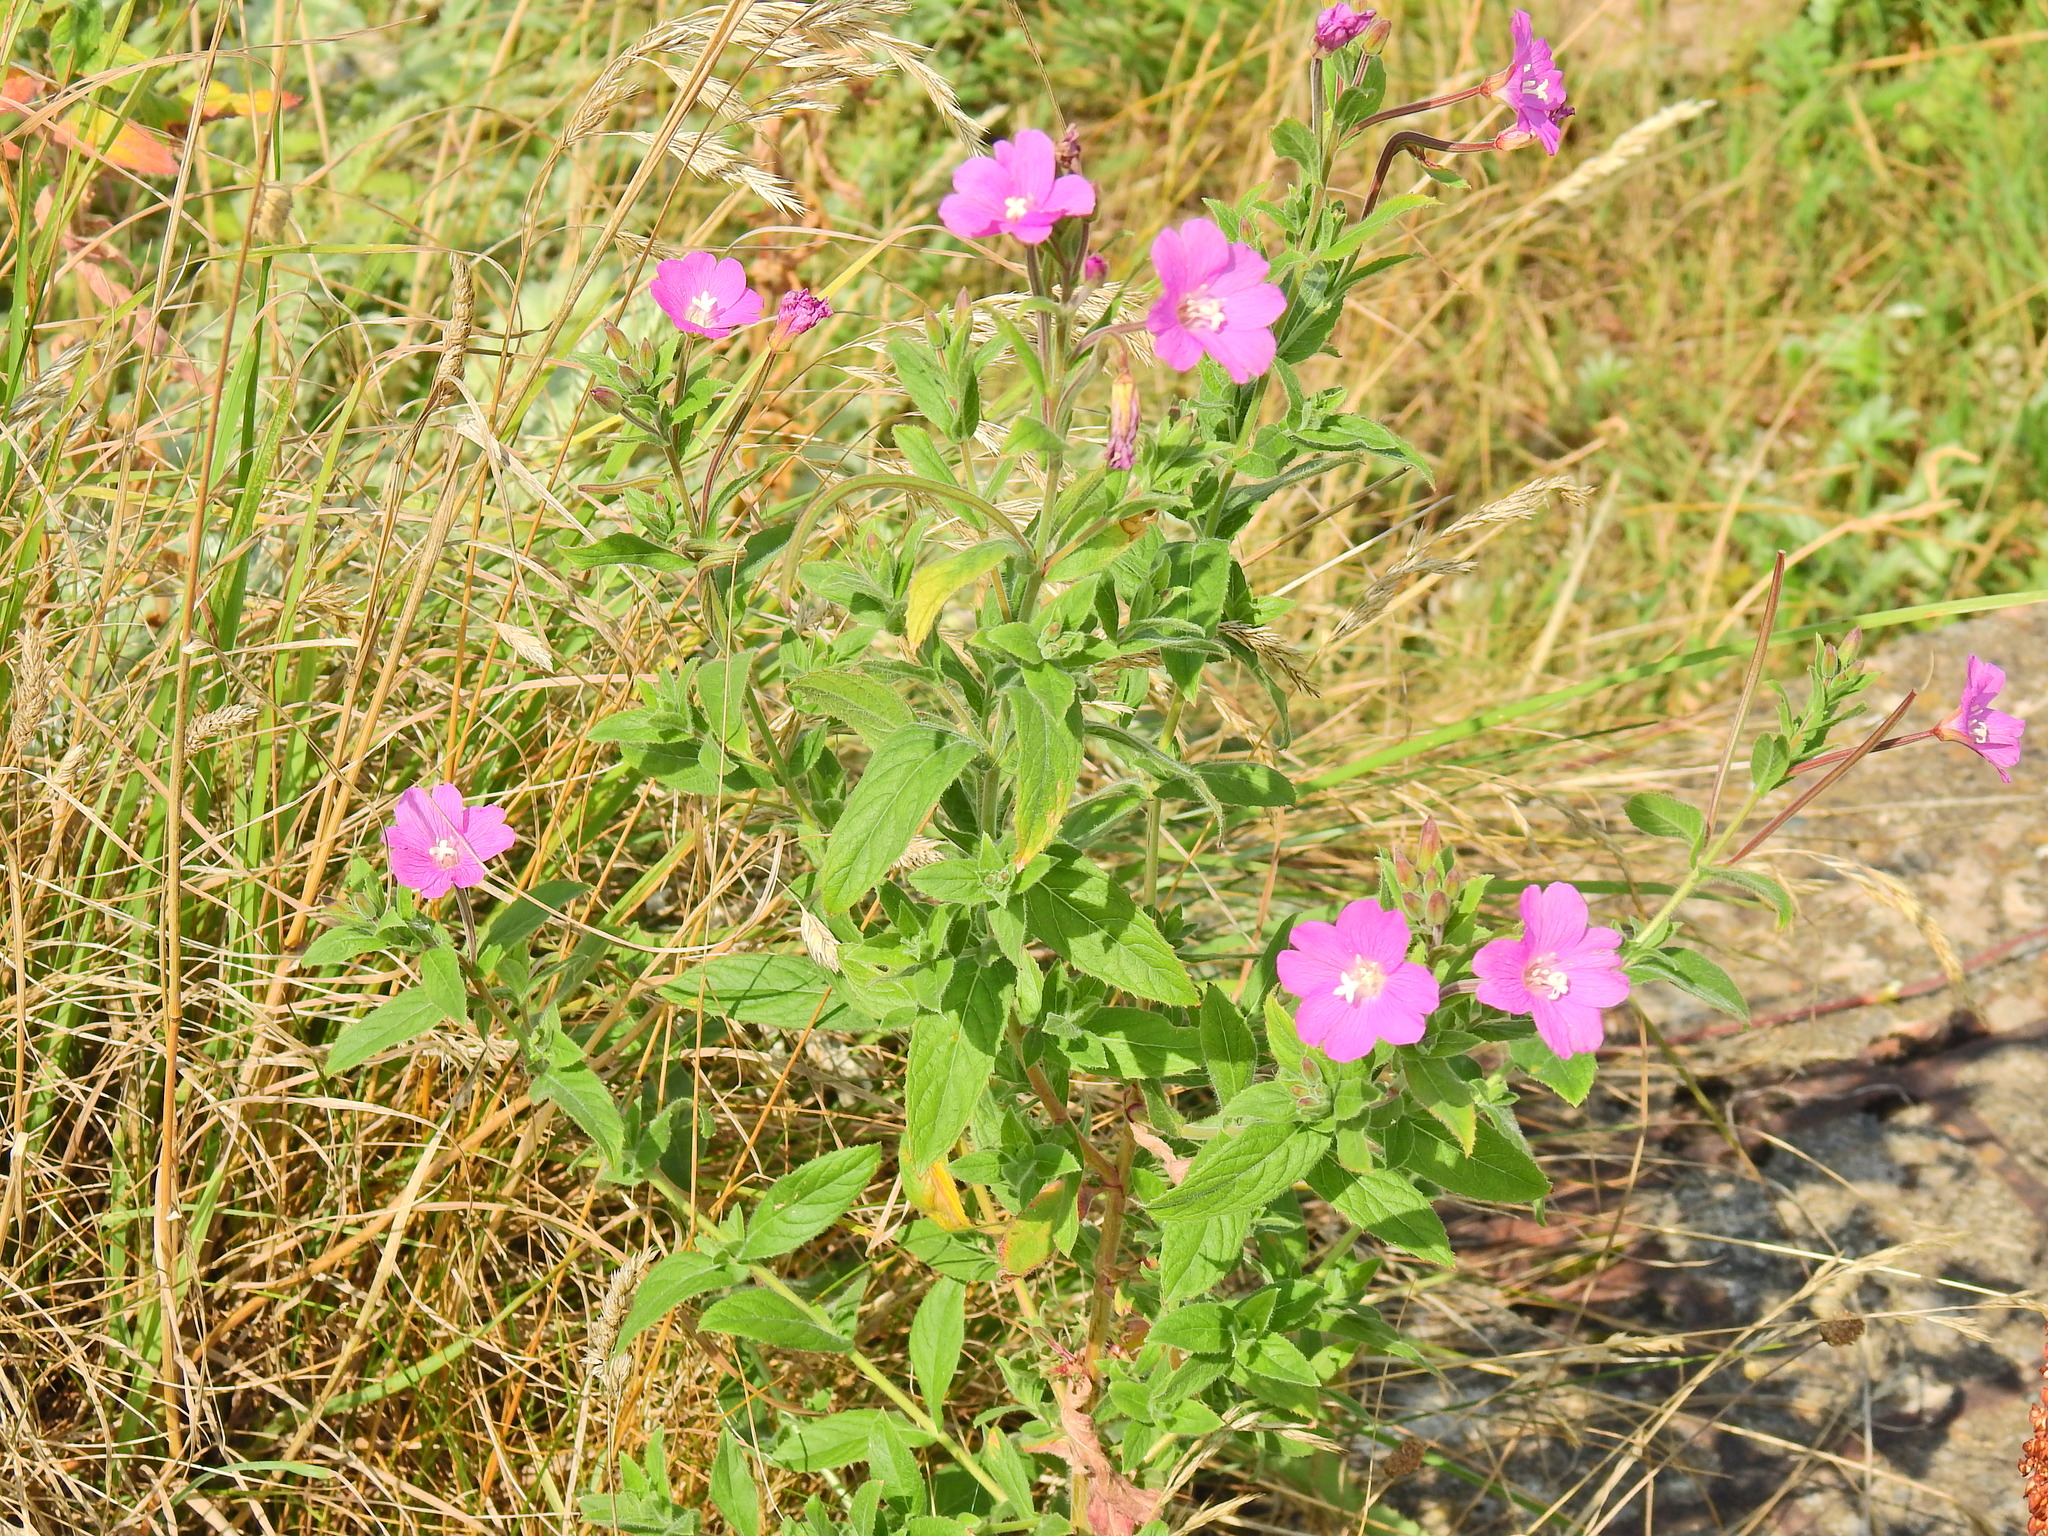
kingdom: Plantae
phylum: Tracheophyta
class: Magnoliopsida
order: Myrtales
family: Onagraceae
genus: Epilobium
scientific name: Epilobium hirsutum
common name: Great willowherb
